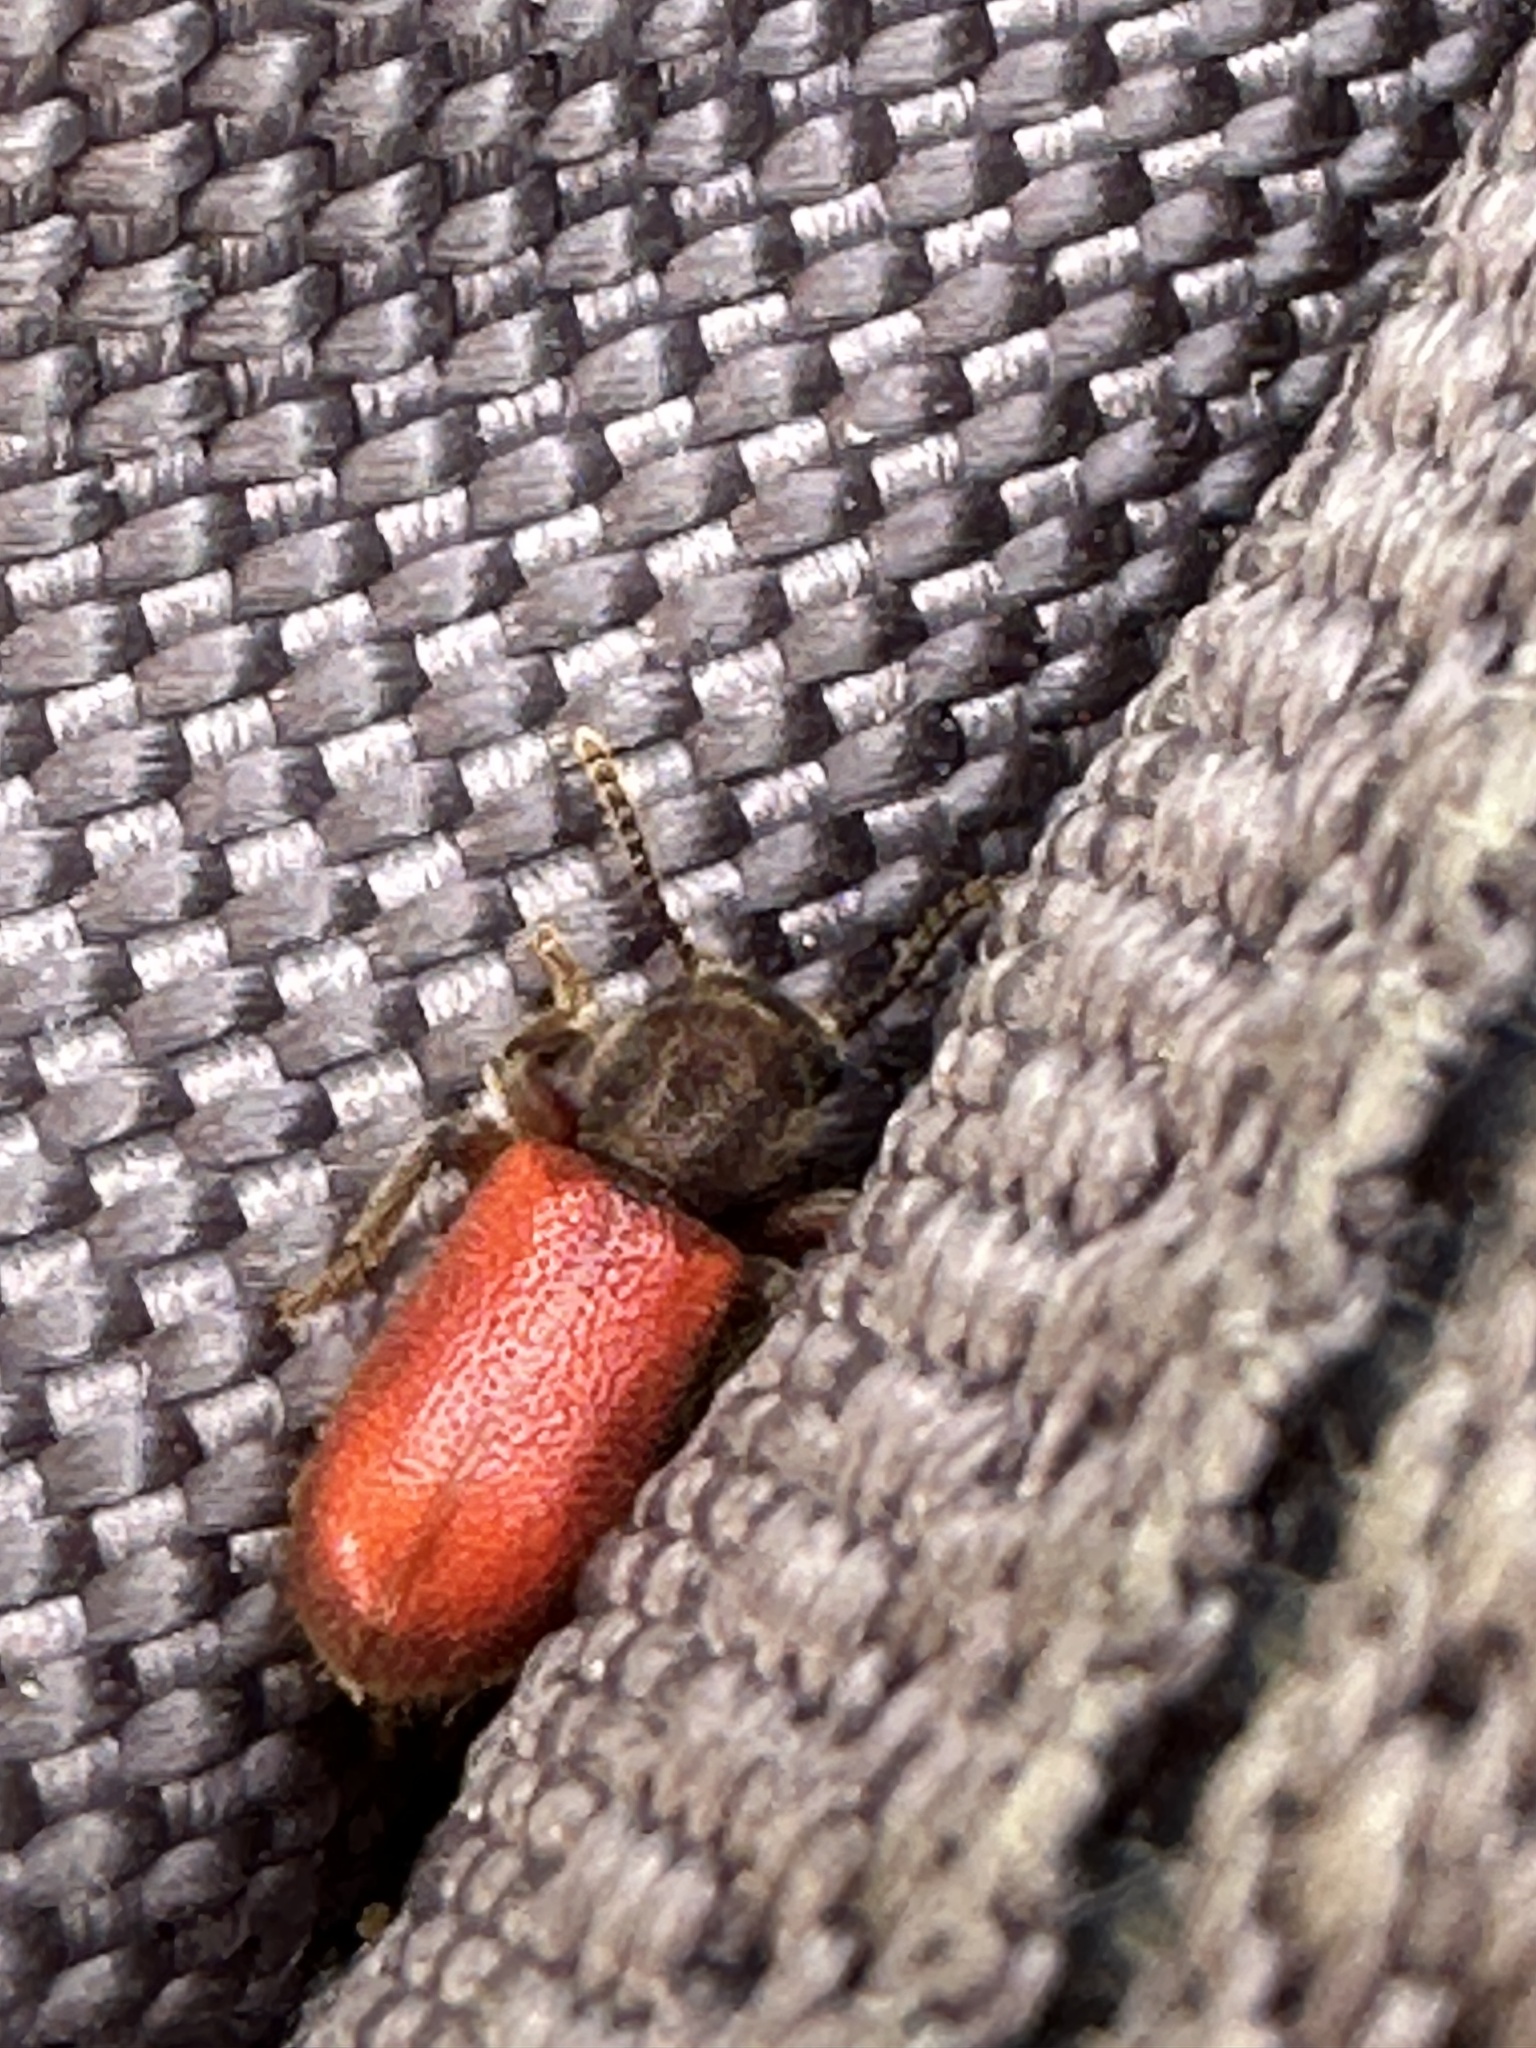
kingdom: Animalia
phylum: Arthropoda
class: Insecta
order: Coleoptera
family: Thanerocleridae
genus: Zenodosus
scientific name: Zenodosus sanguineus
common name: Blood-colored checkered beetle
